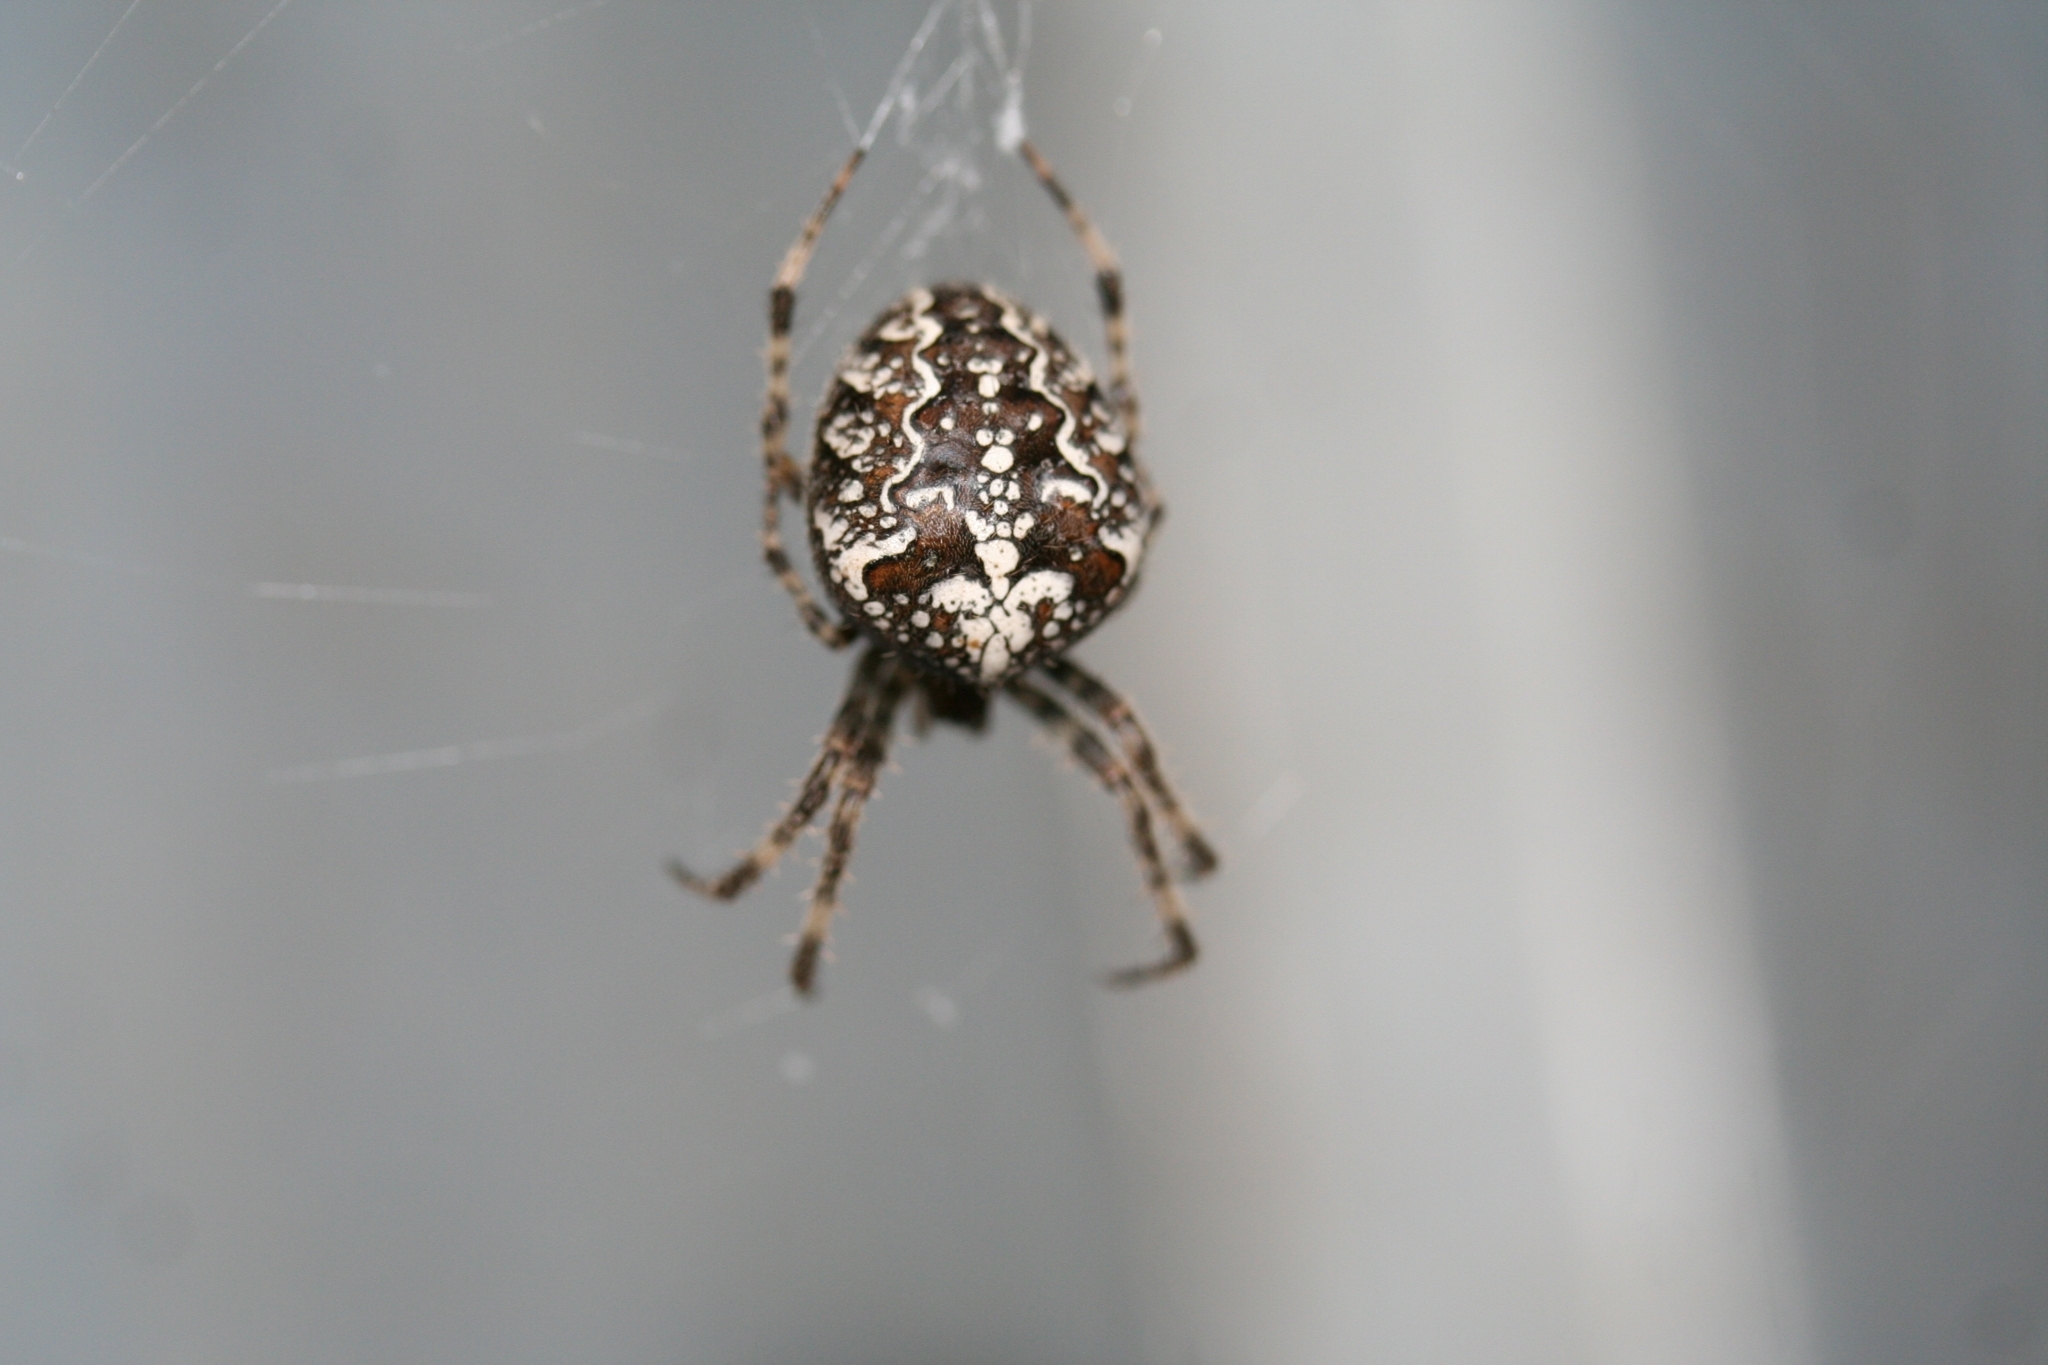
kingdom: Animalia
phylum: Arthropoda
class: Arachnida
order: Araneae
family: Araneidae
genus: Araneus
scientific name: Araneus diadematus
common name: Cross orbweaver
